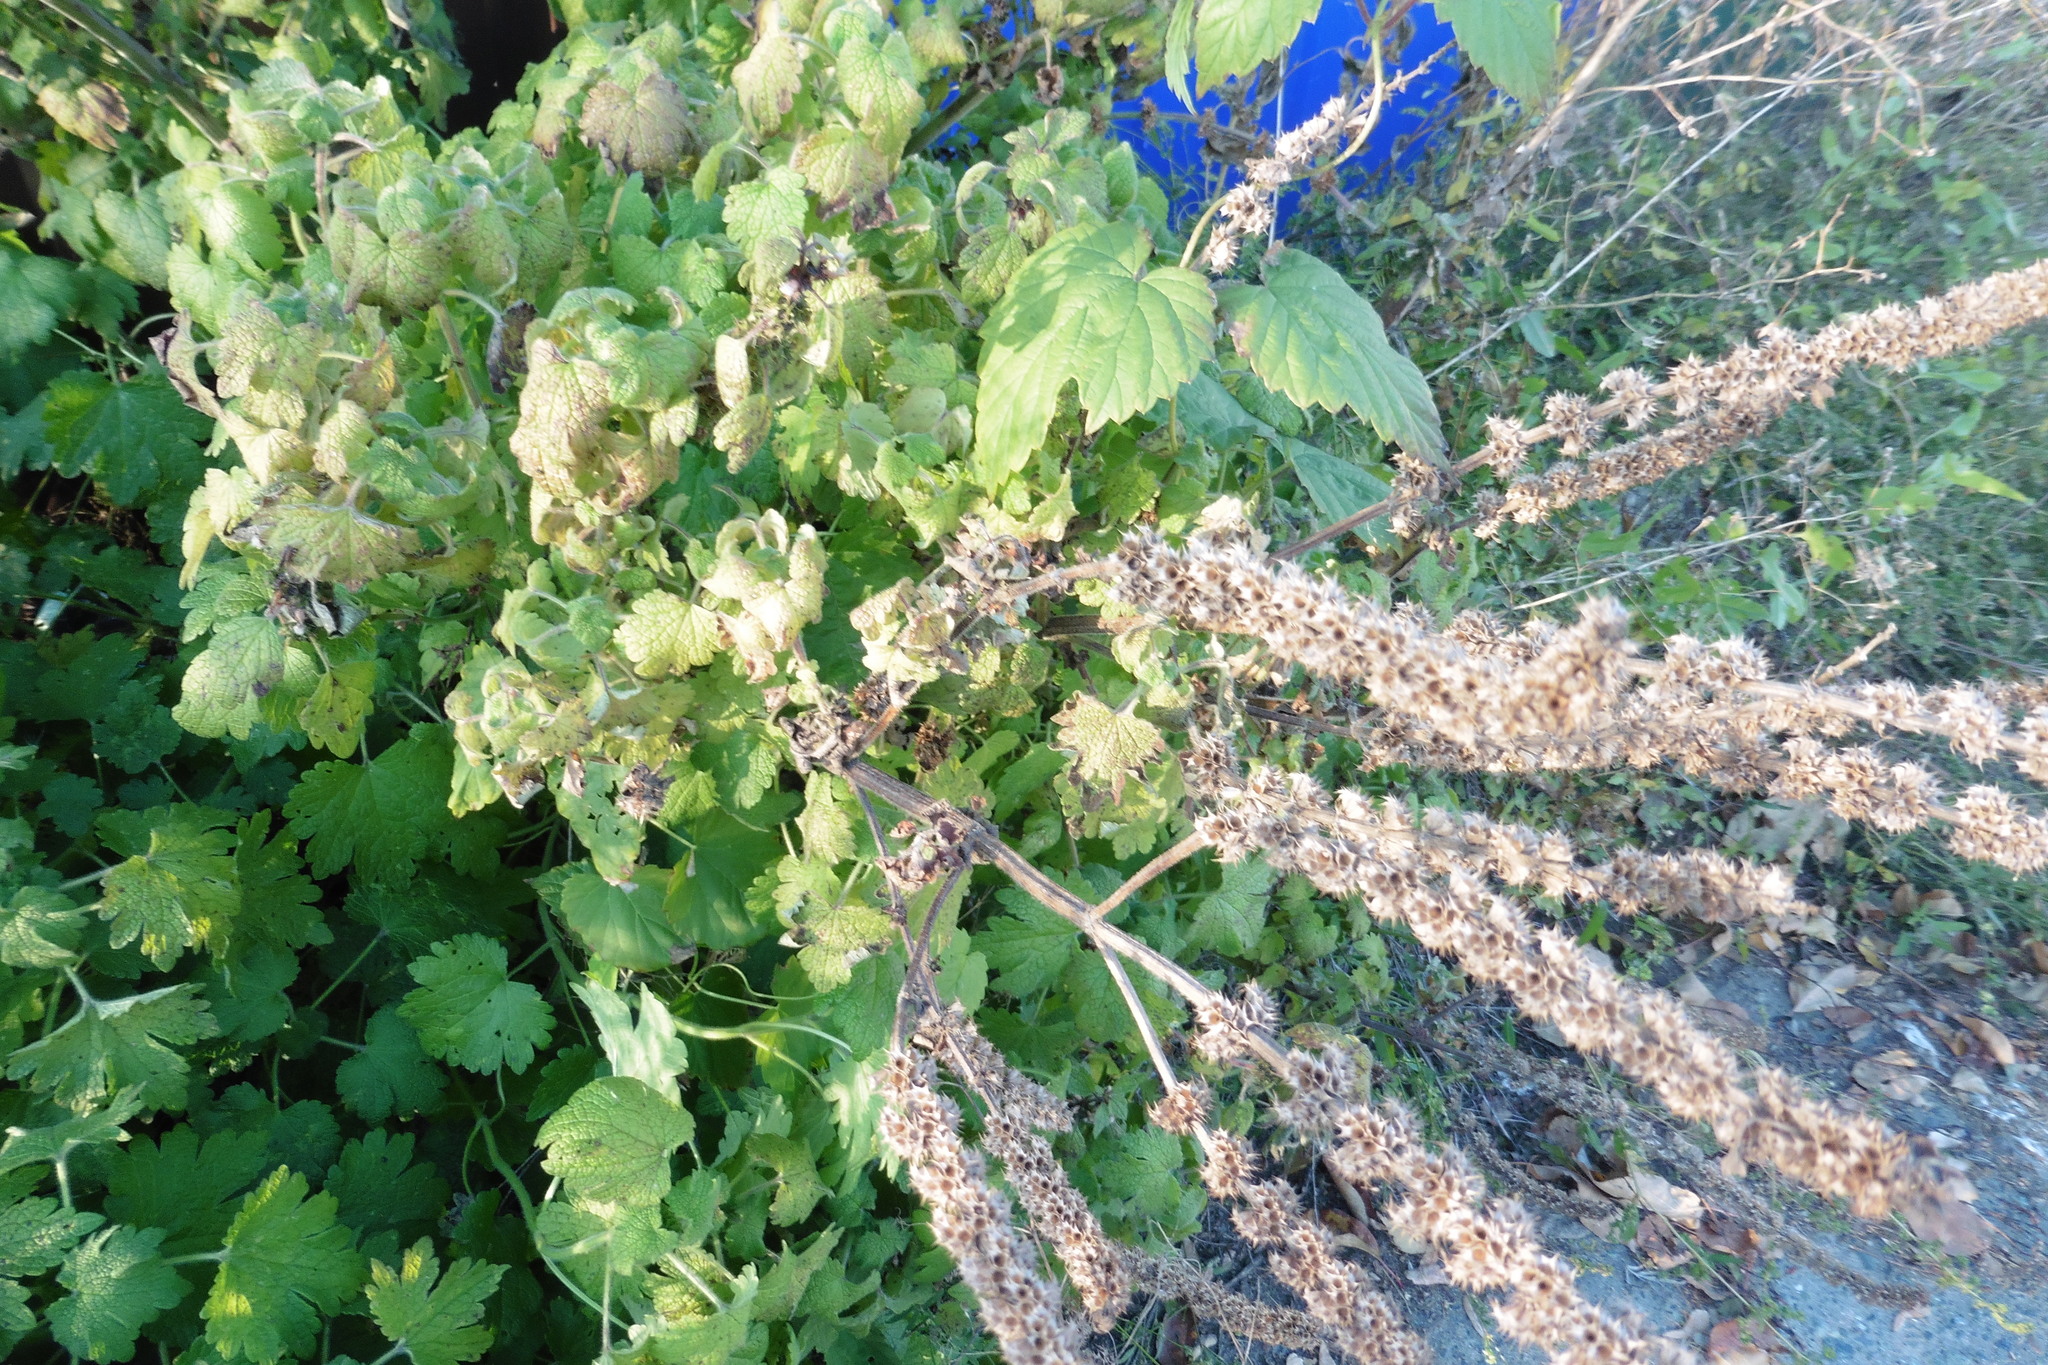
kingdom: Plantae
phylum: Tracheophyta
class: Magnoliopsida
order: Lamiales
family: Lamiaceae
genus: Leonurus
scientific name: Leonurus quinquelobatus
